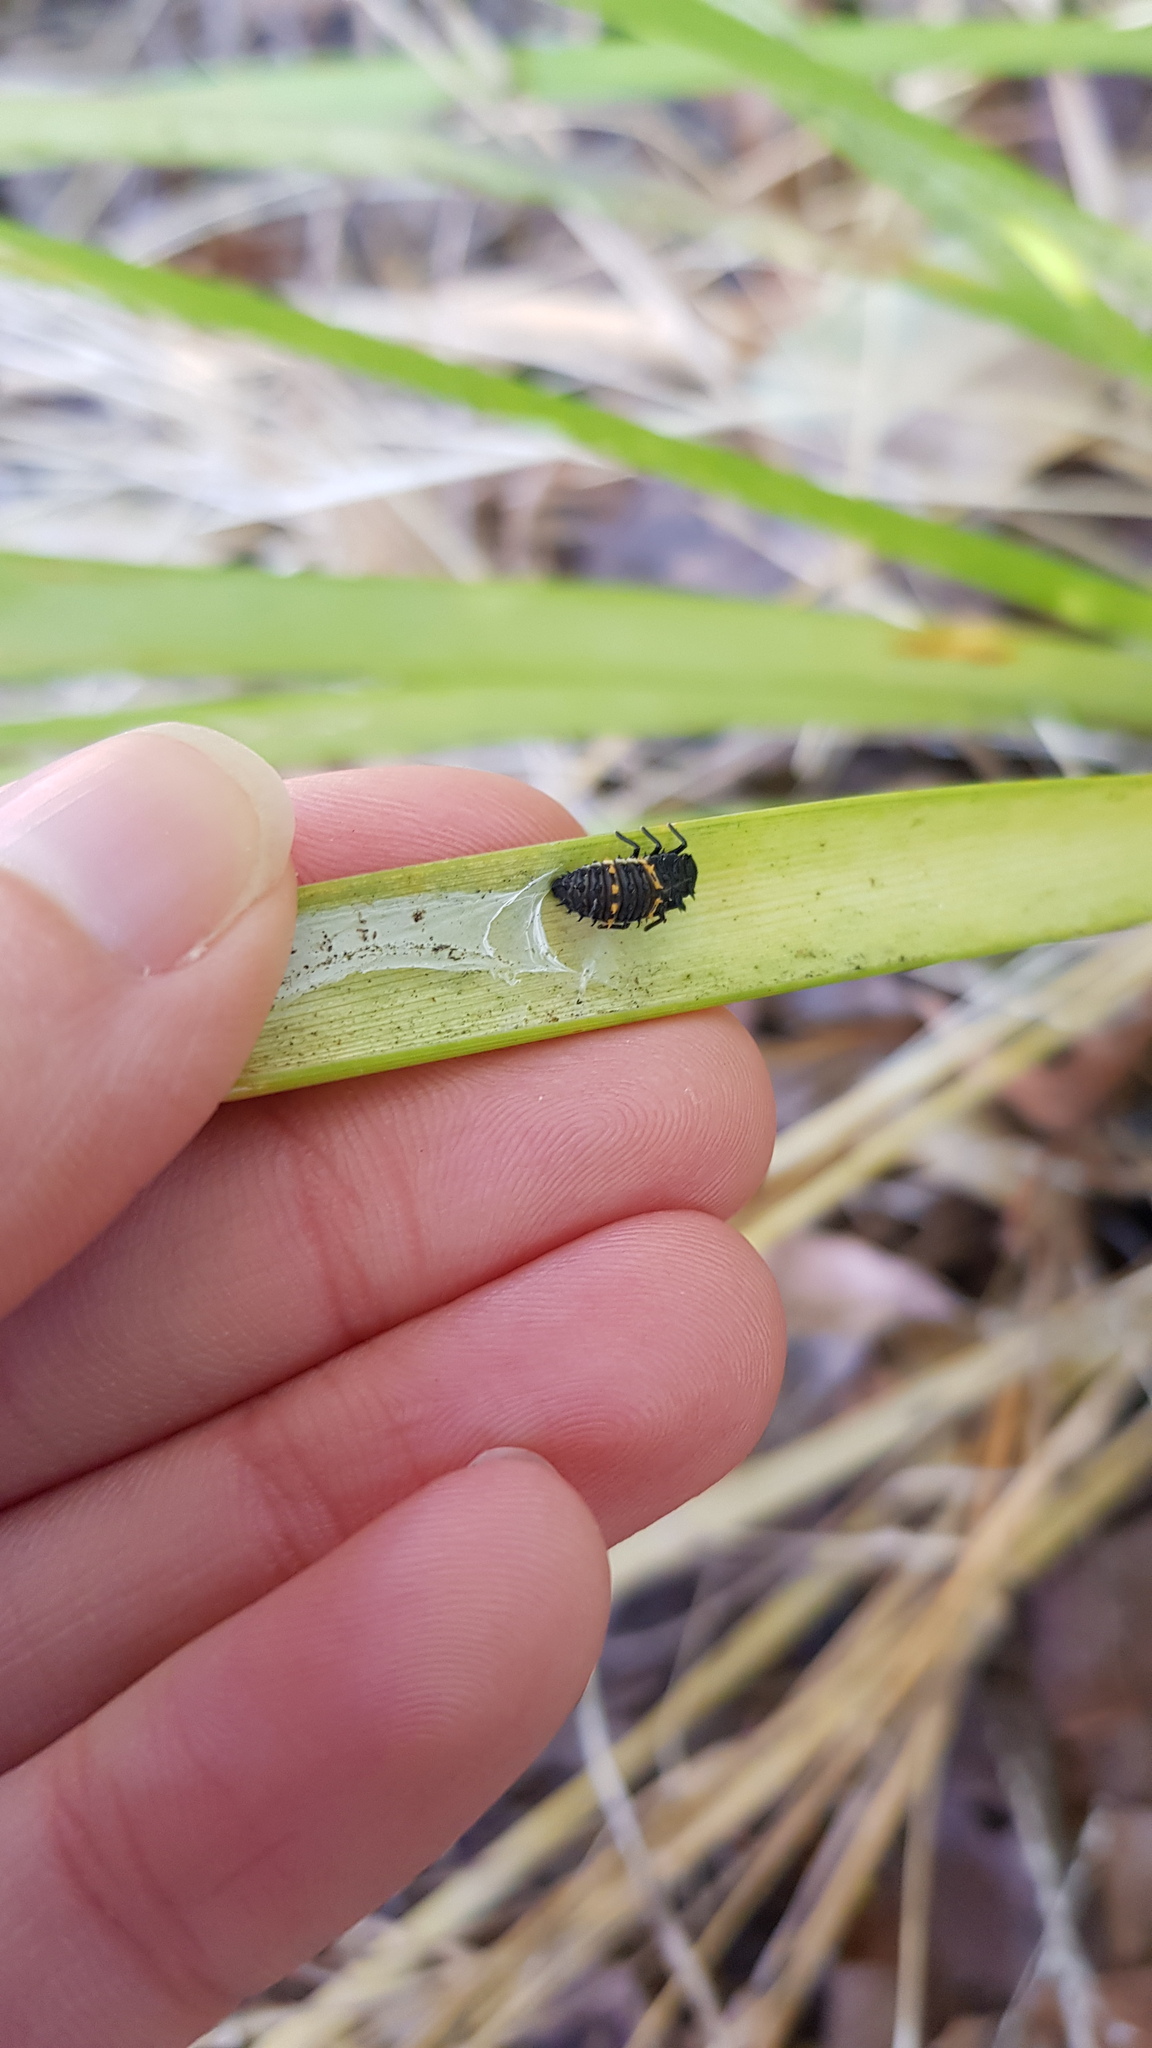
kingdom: Animalia
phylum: Arthropoda
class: Insecta
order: Coleoptera
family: Coccinellidae
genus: Harmonia
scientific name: Harmonia conformis
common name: Common spotted ladybird beetle
